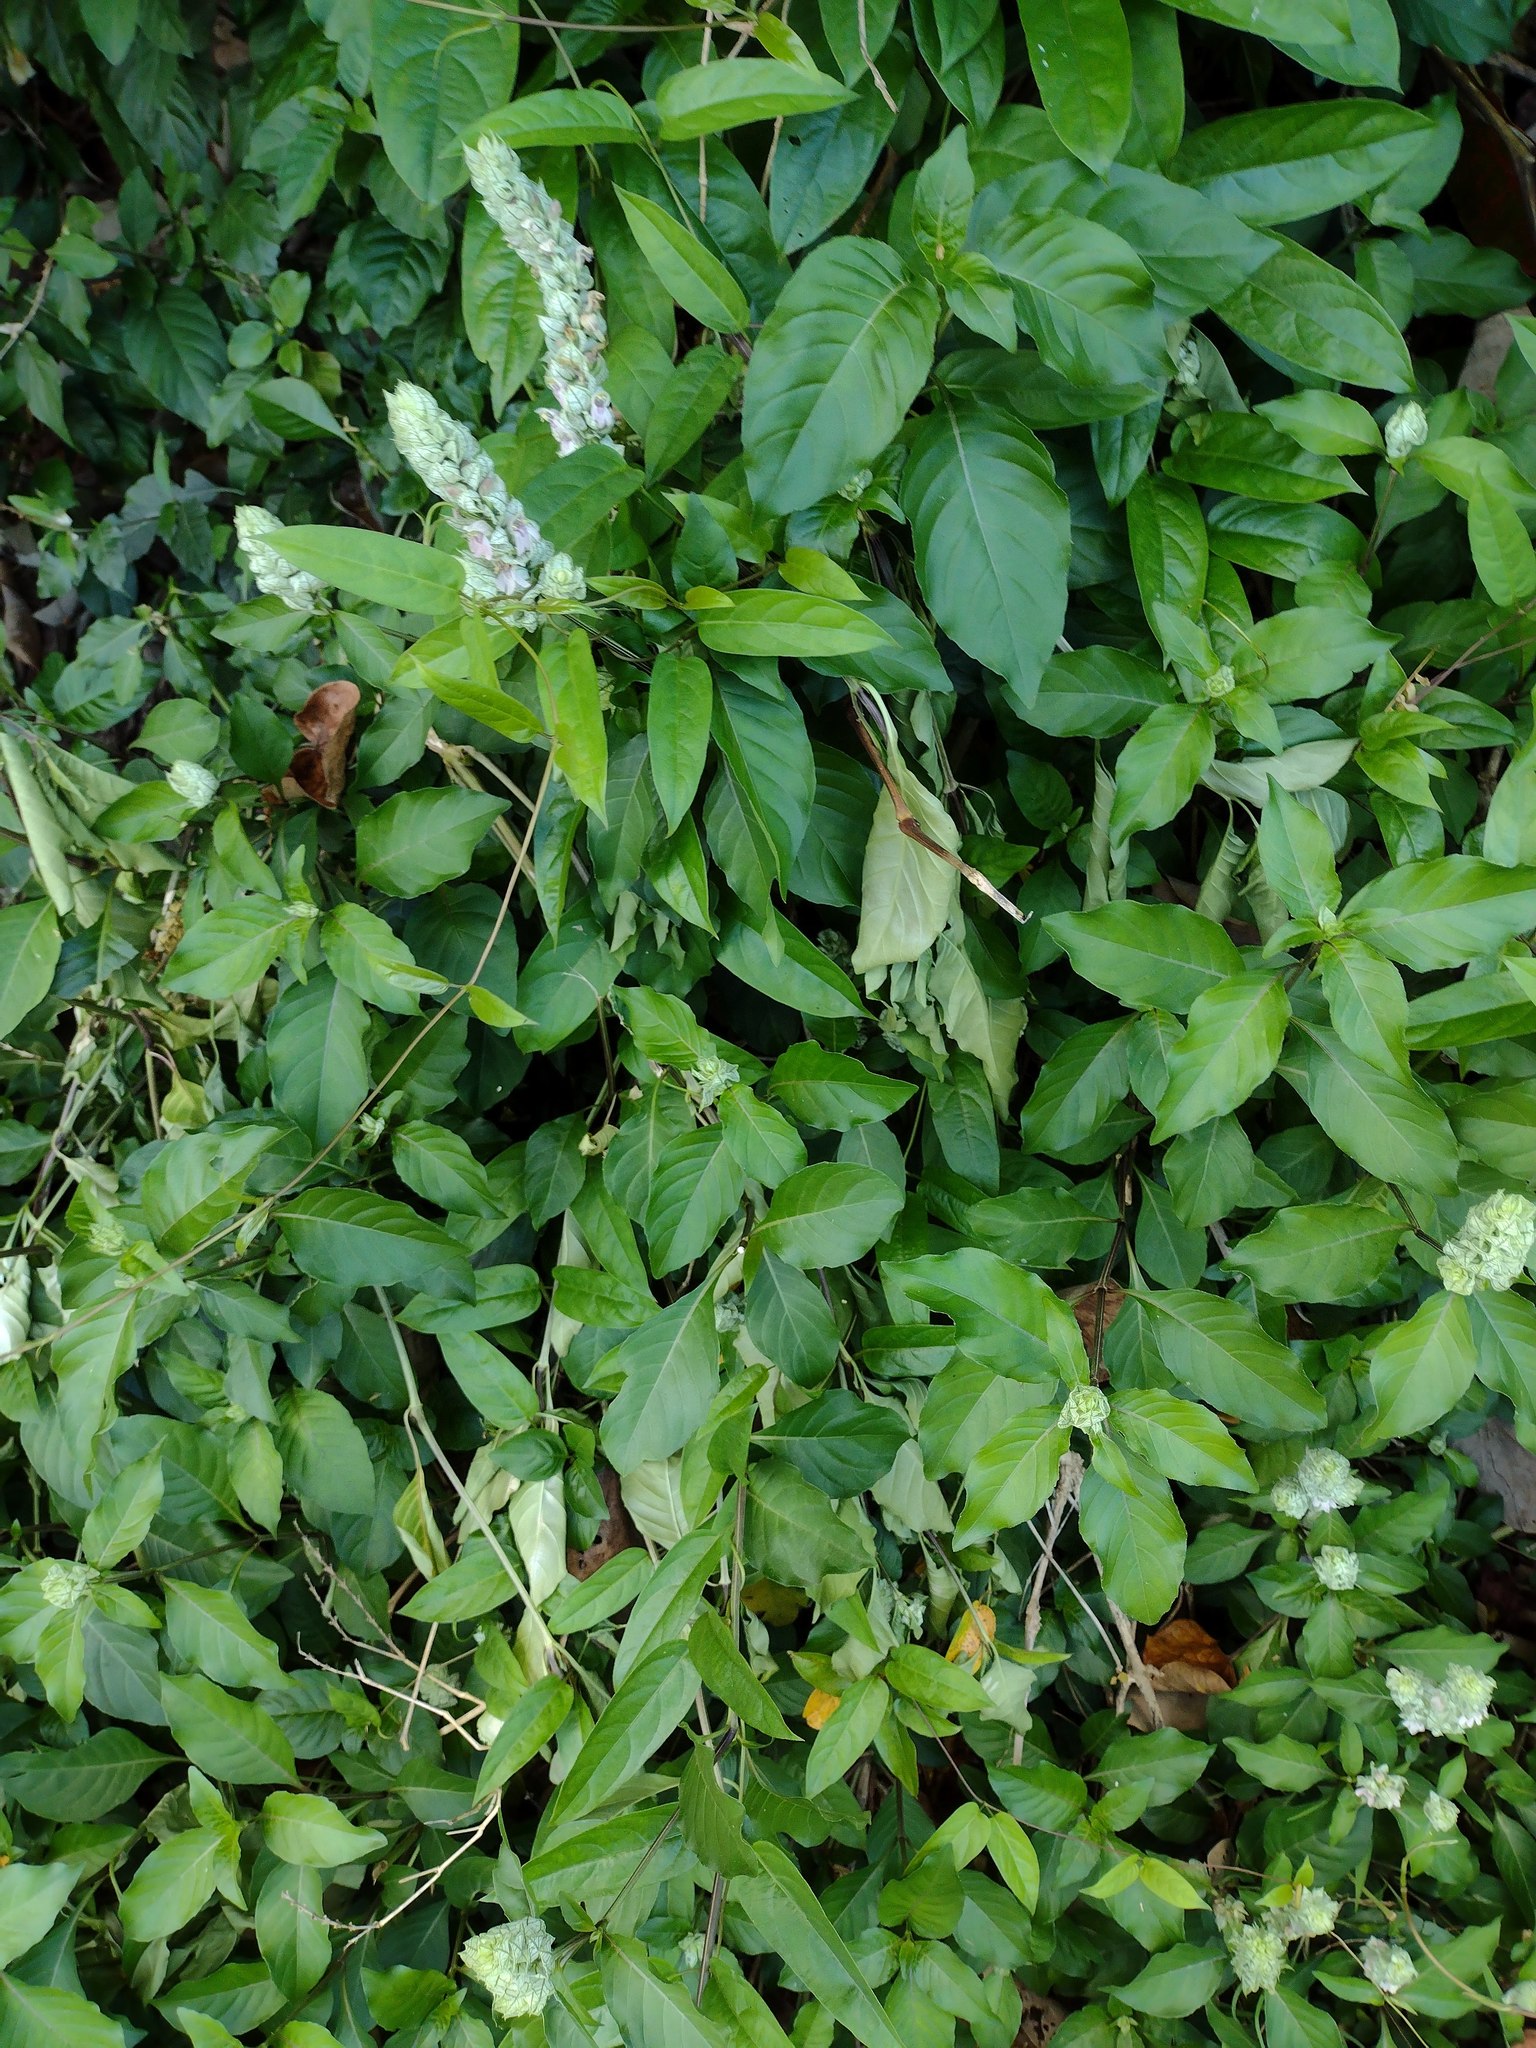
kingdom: Plantae
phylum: Tracheophyta
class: Magnoliopsida
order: Lamiales
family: Acanthaceae
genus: Justicia
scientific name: Justicia betonica
